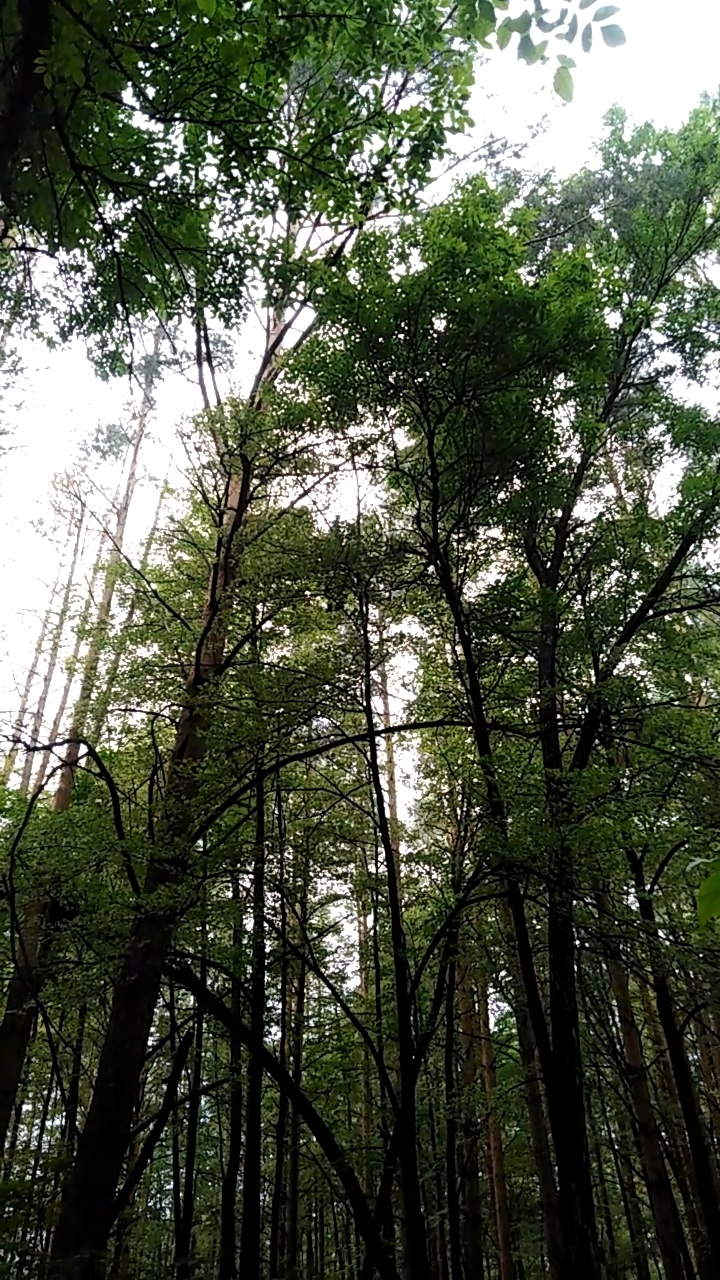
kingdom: Animalia
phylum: Chordata
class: Aves
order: Passeriformes
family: Acrocephalidae
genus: Hippolais
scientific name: Hippolais icterina
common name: Icterine warbler
